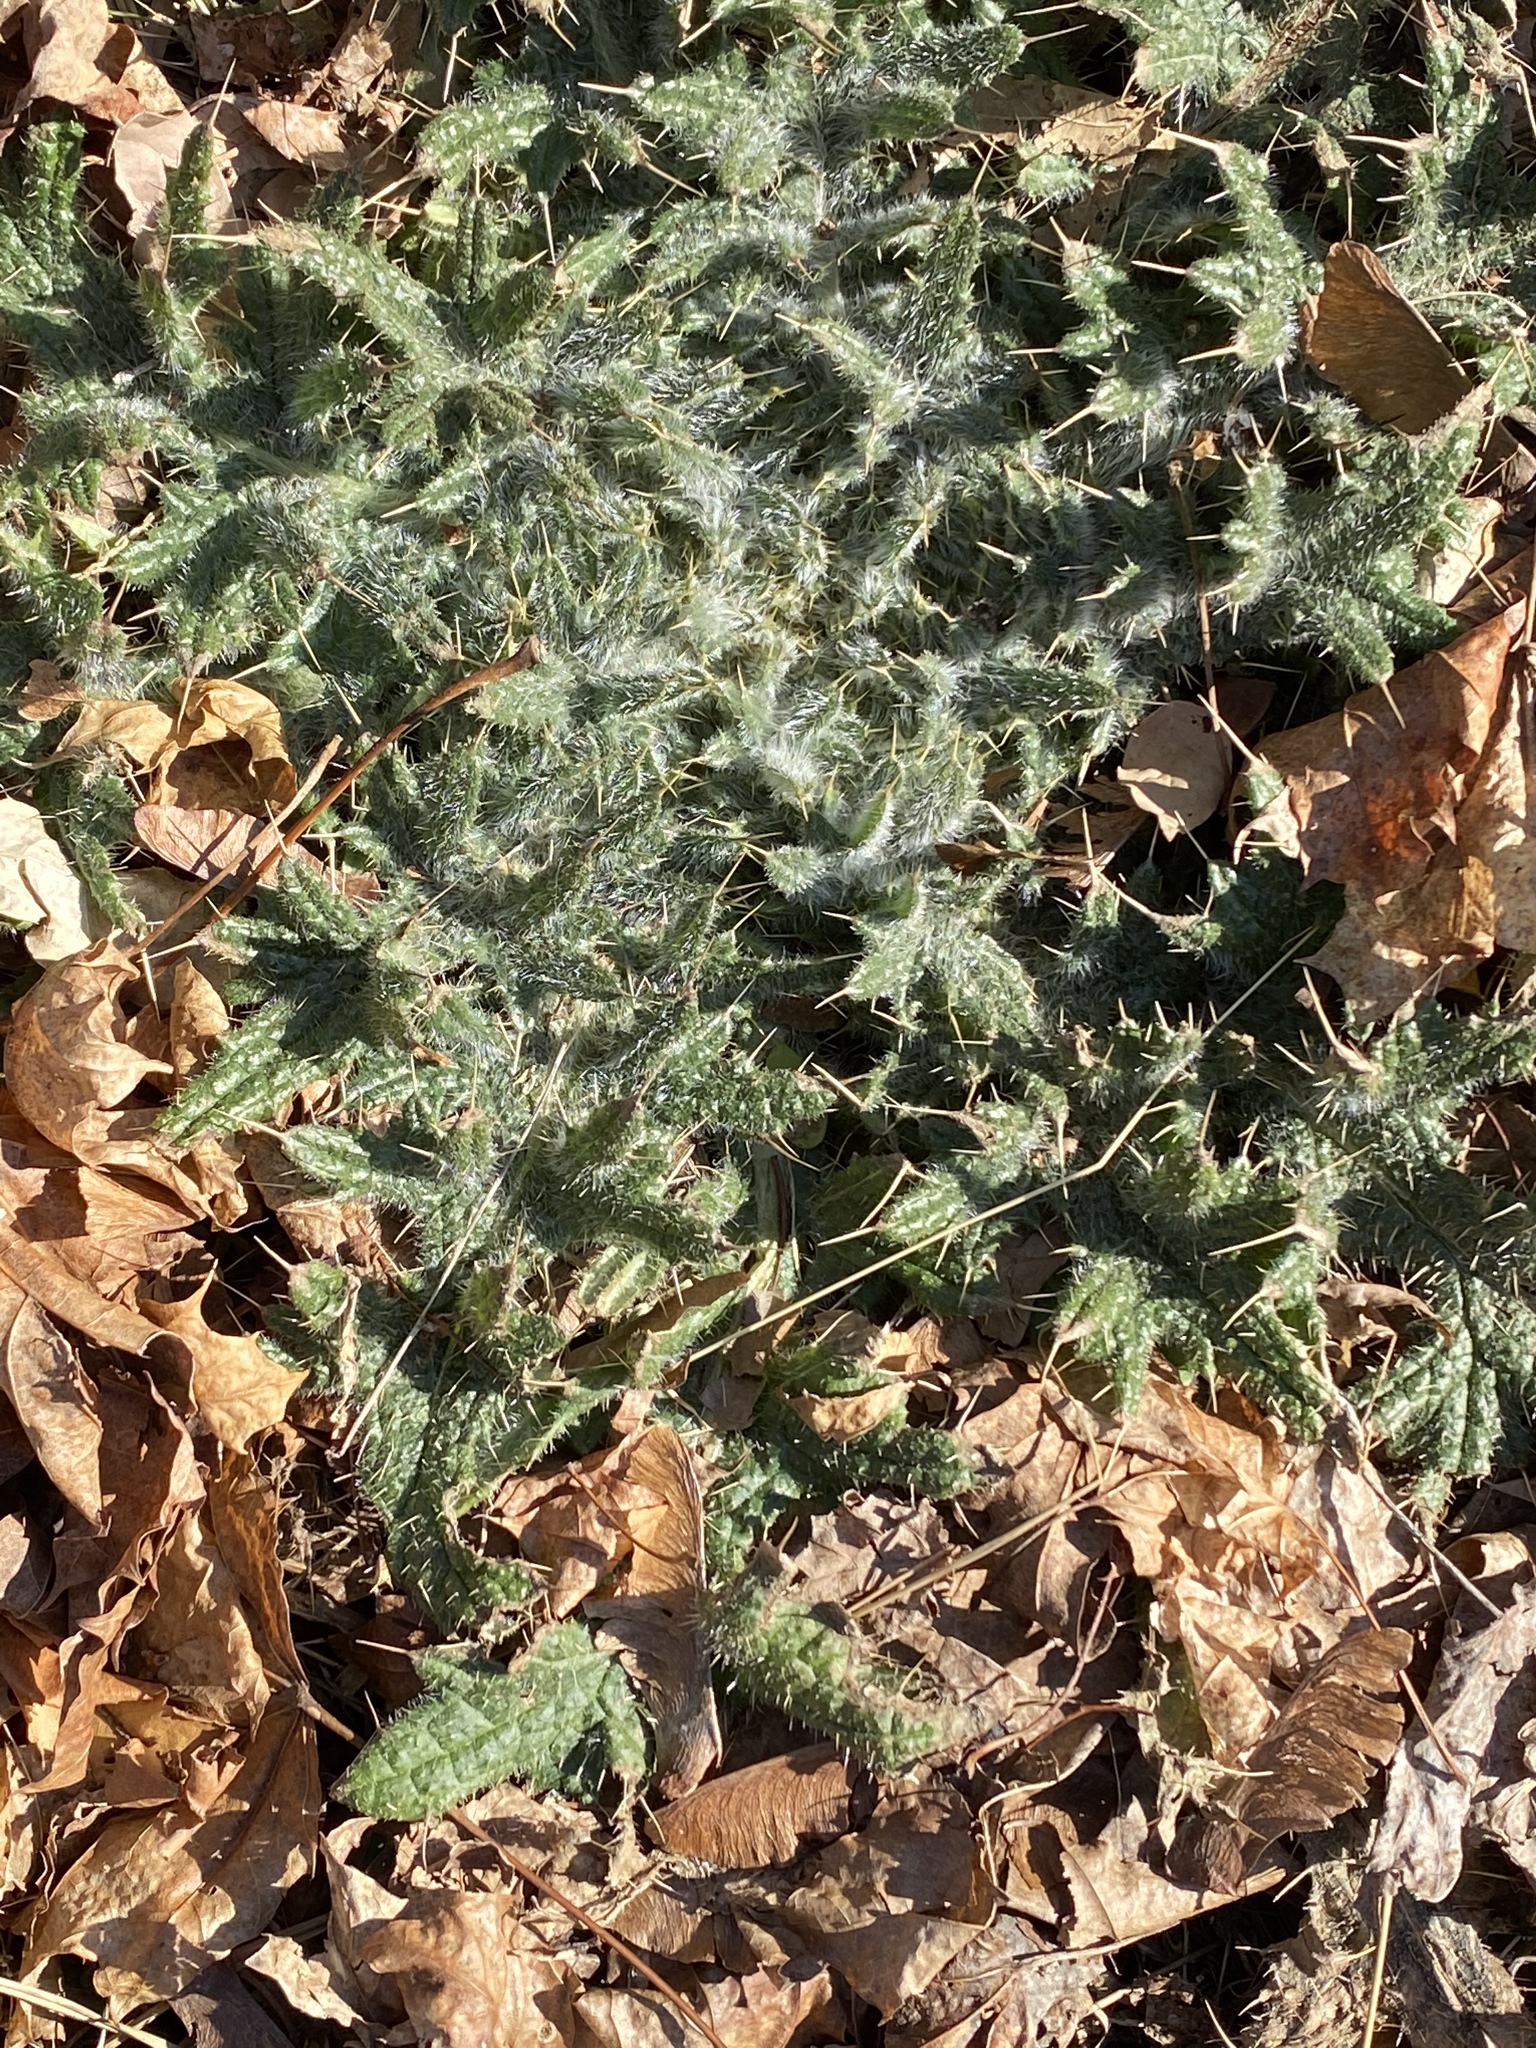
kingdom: Plantae
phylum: Tracheophyta
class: Magnoliopsida
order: Asterales
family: Asteraceae
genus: Cirsium
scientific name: Cirsium vulgare
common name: Bull thistle
